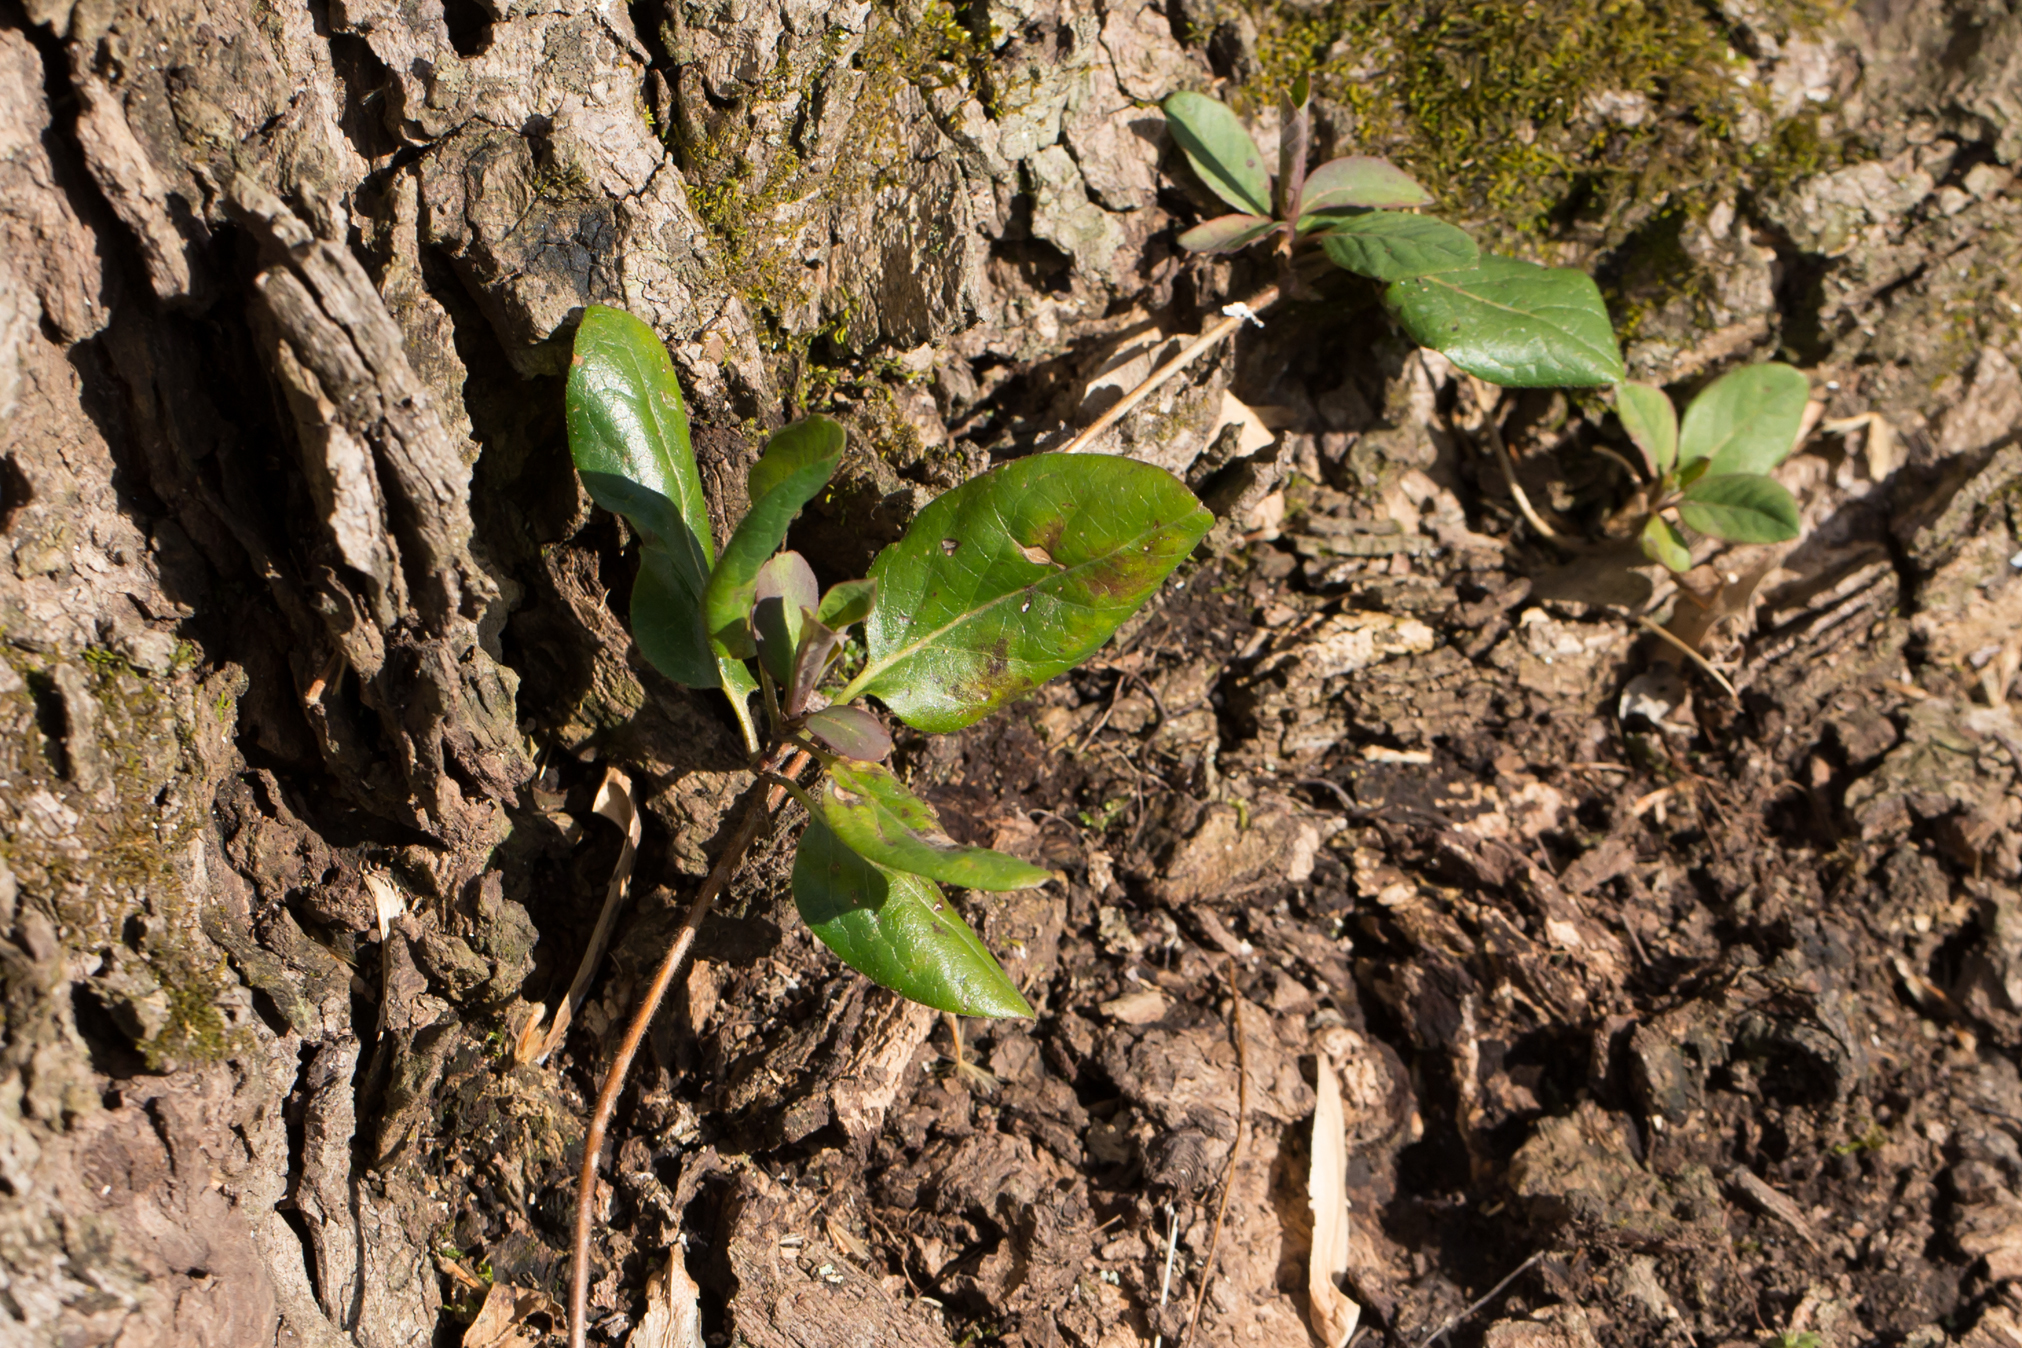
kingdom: Plantae
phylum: Tracheophyta
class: Magnoliopsida
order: Dipsacales
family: Caprifoliaceae
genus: Lonicera
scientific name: Lonicera japonica
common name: Japanese honeysuckle
